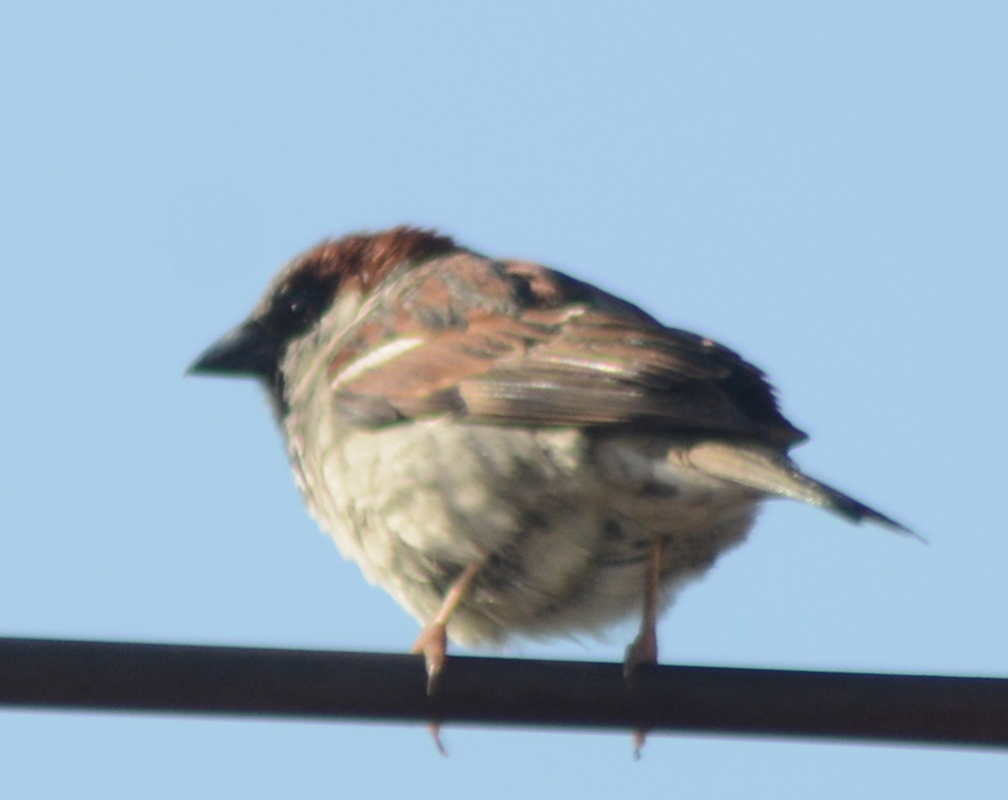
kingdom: Animalia
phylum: Chordata
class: Aves
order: Passeriformes
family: Passeridae
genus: Passer
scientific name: Passer domesticus
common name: House sparrow
